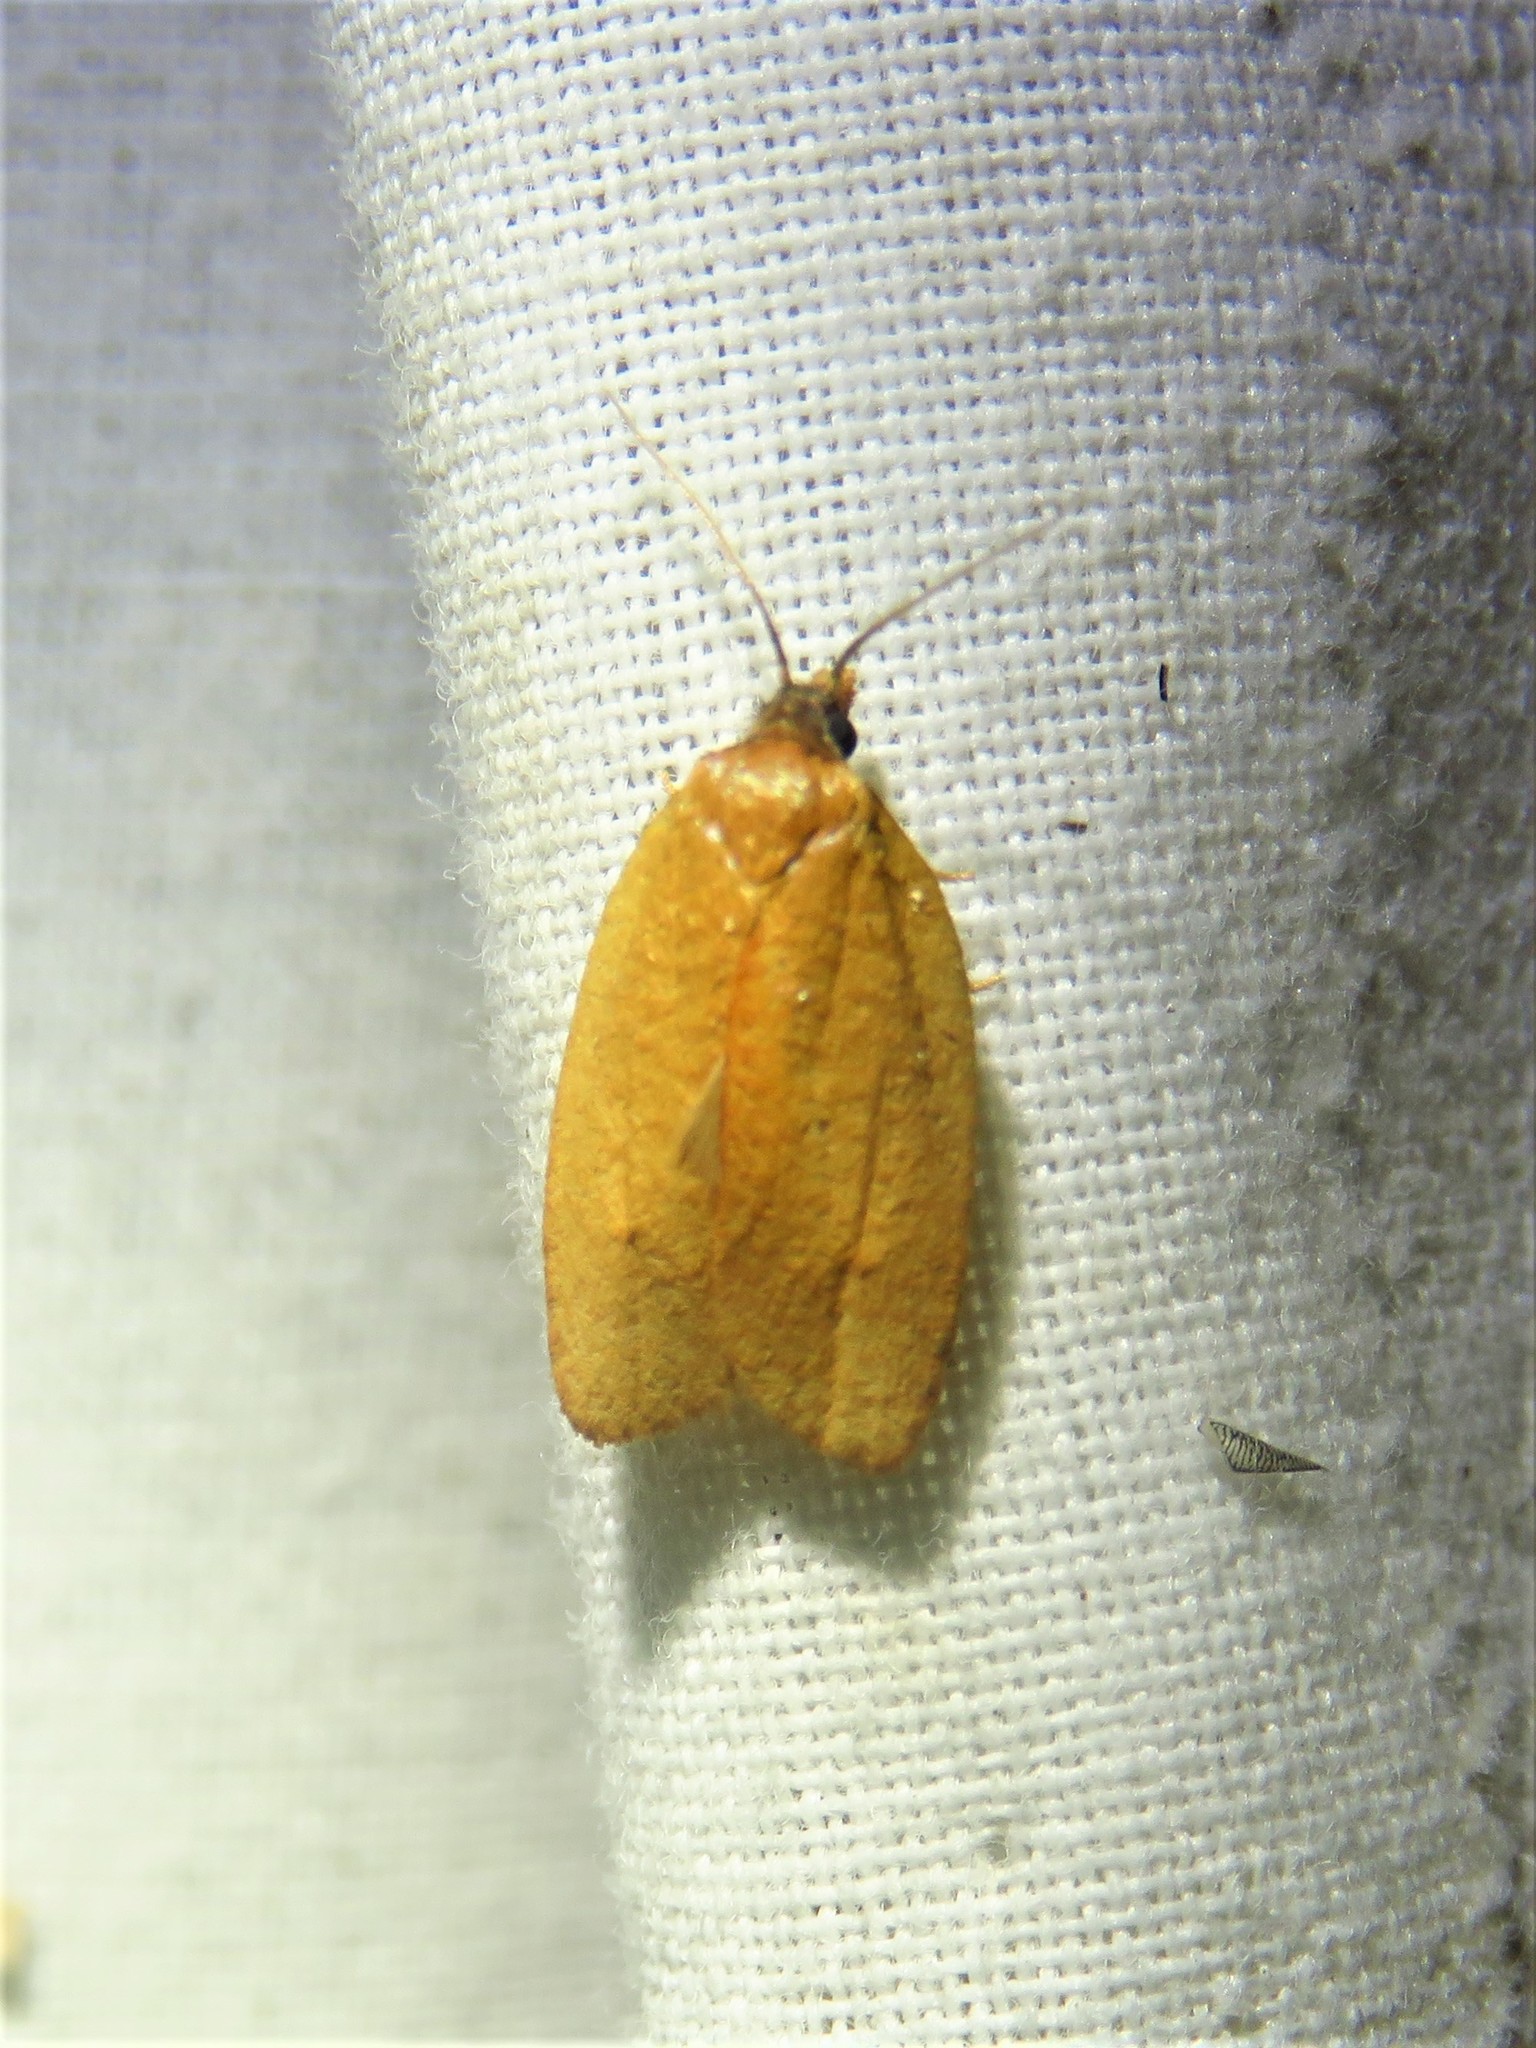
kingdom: Animalia
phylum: Arthropoda
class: Insecta
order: Lepidoptera
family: Tortricidae
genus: Sparganothis
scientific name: Sparganothis demissana
